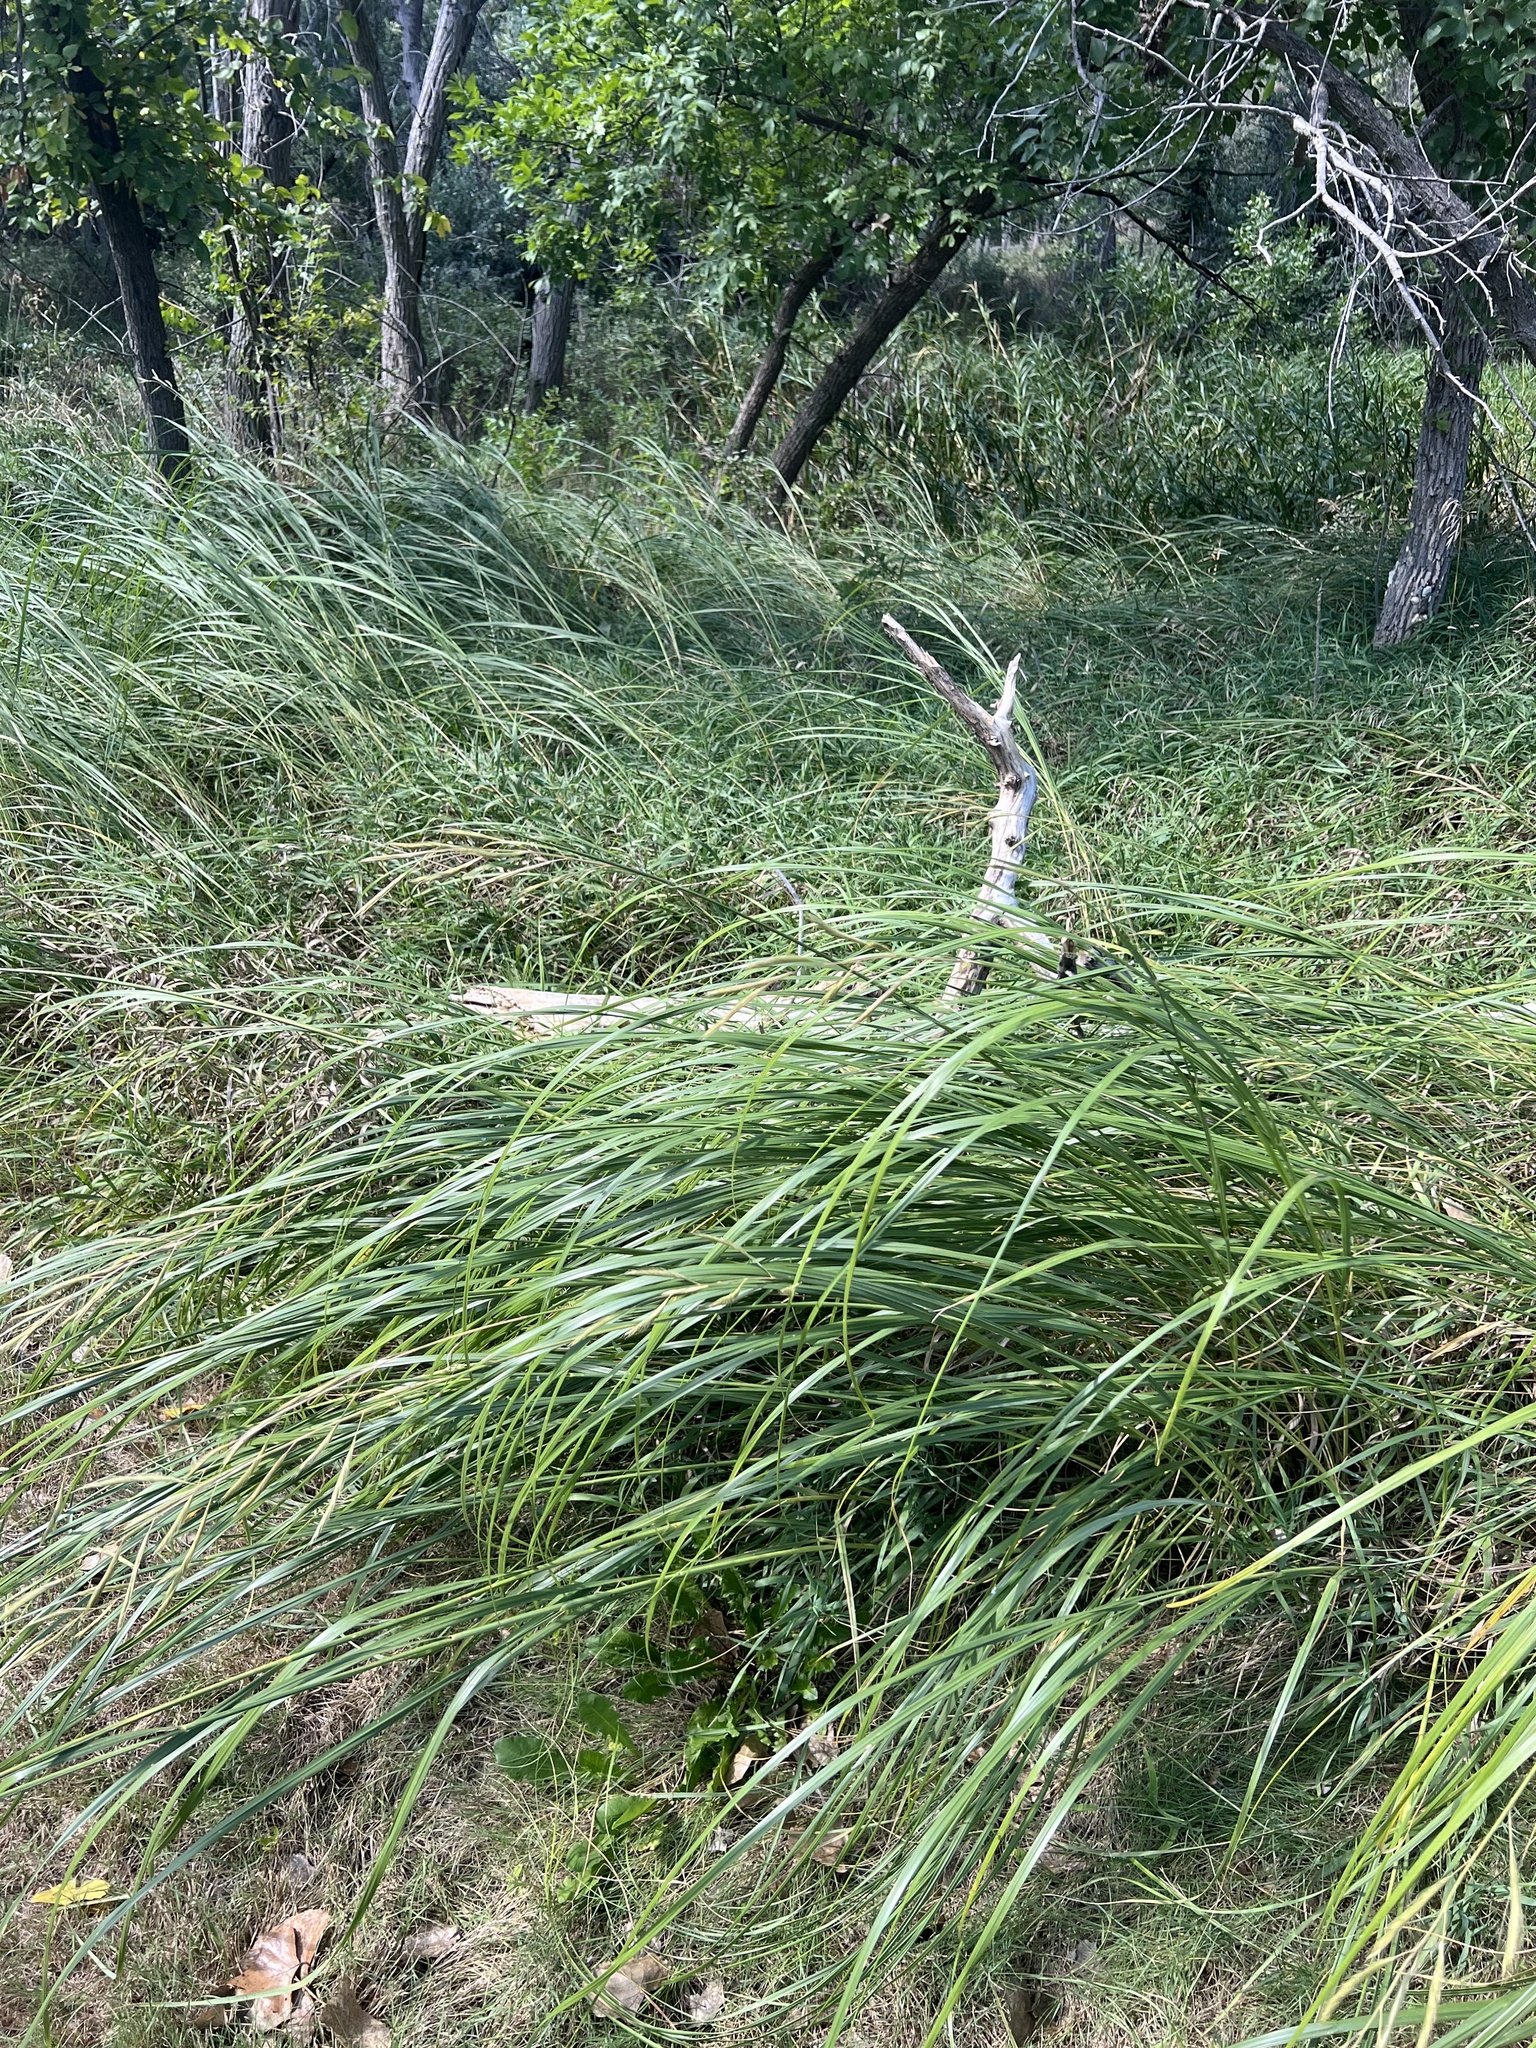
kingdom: Plantae
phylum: Tracheophyta
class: Liliopsida
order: Poales
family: Poaceae
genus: Sporobolus
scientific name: Sporobolus michauxianus
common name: Freshwater cordgrass
